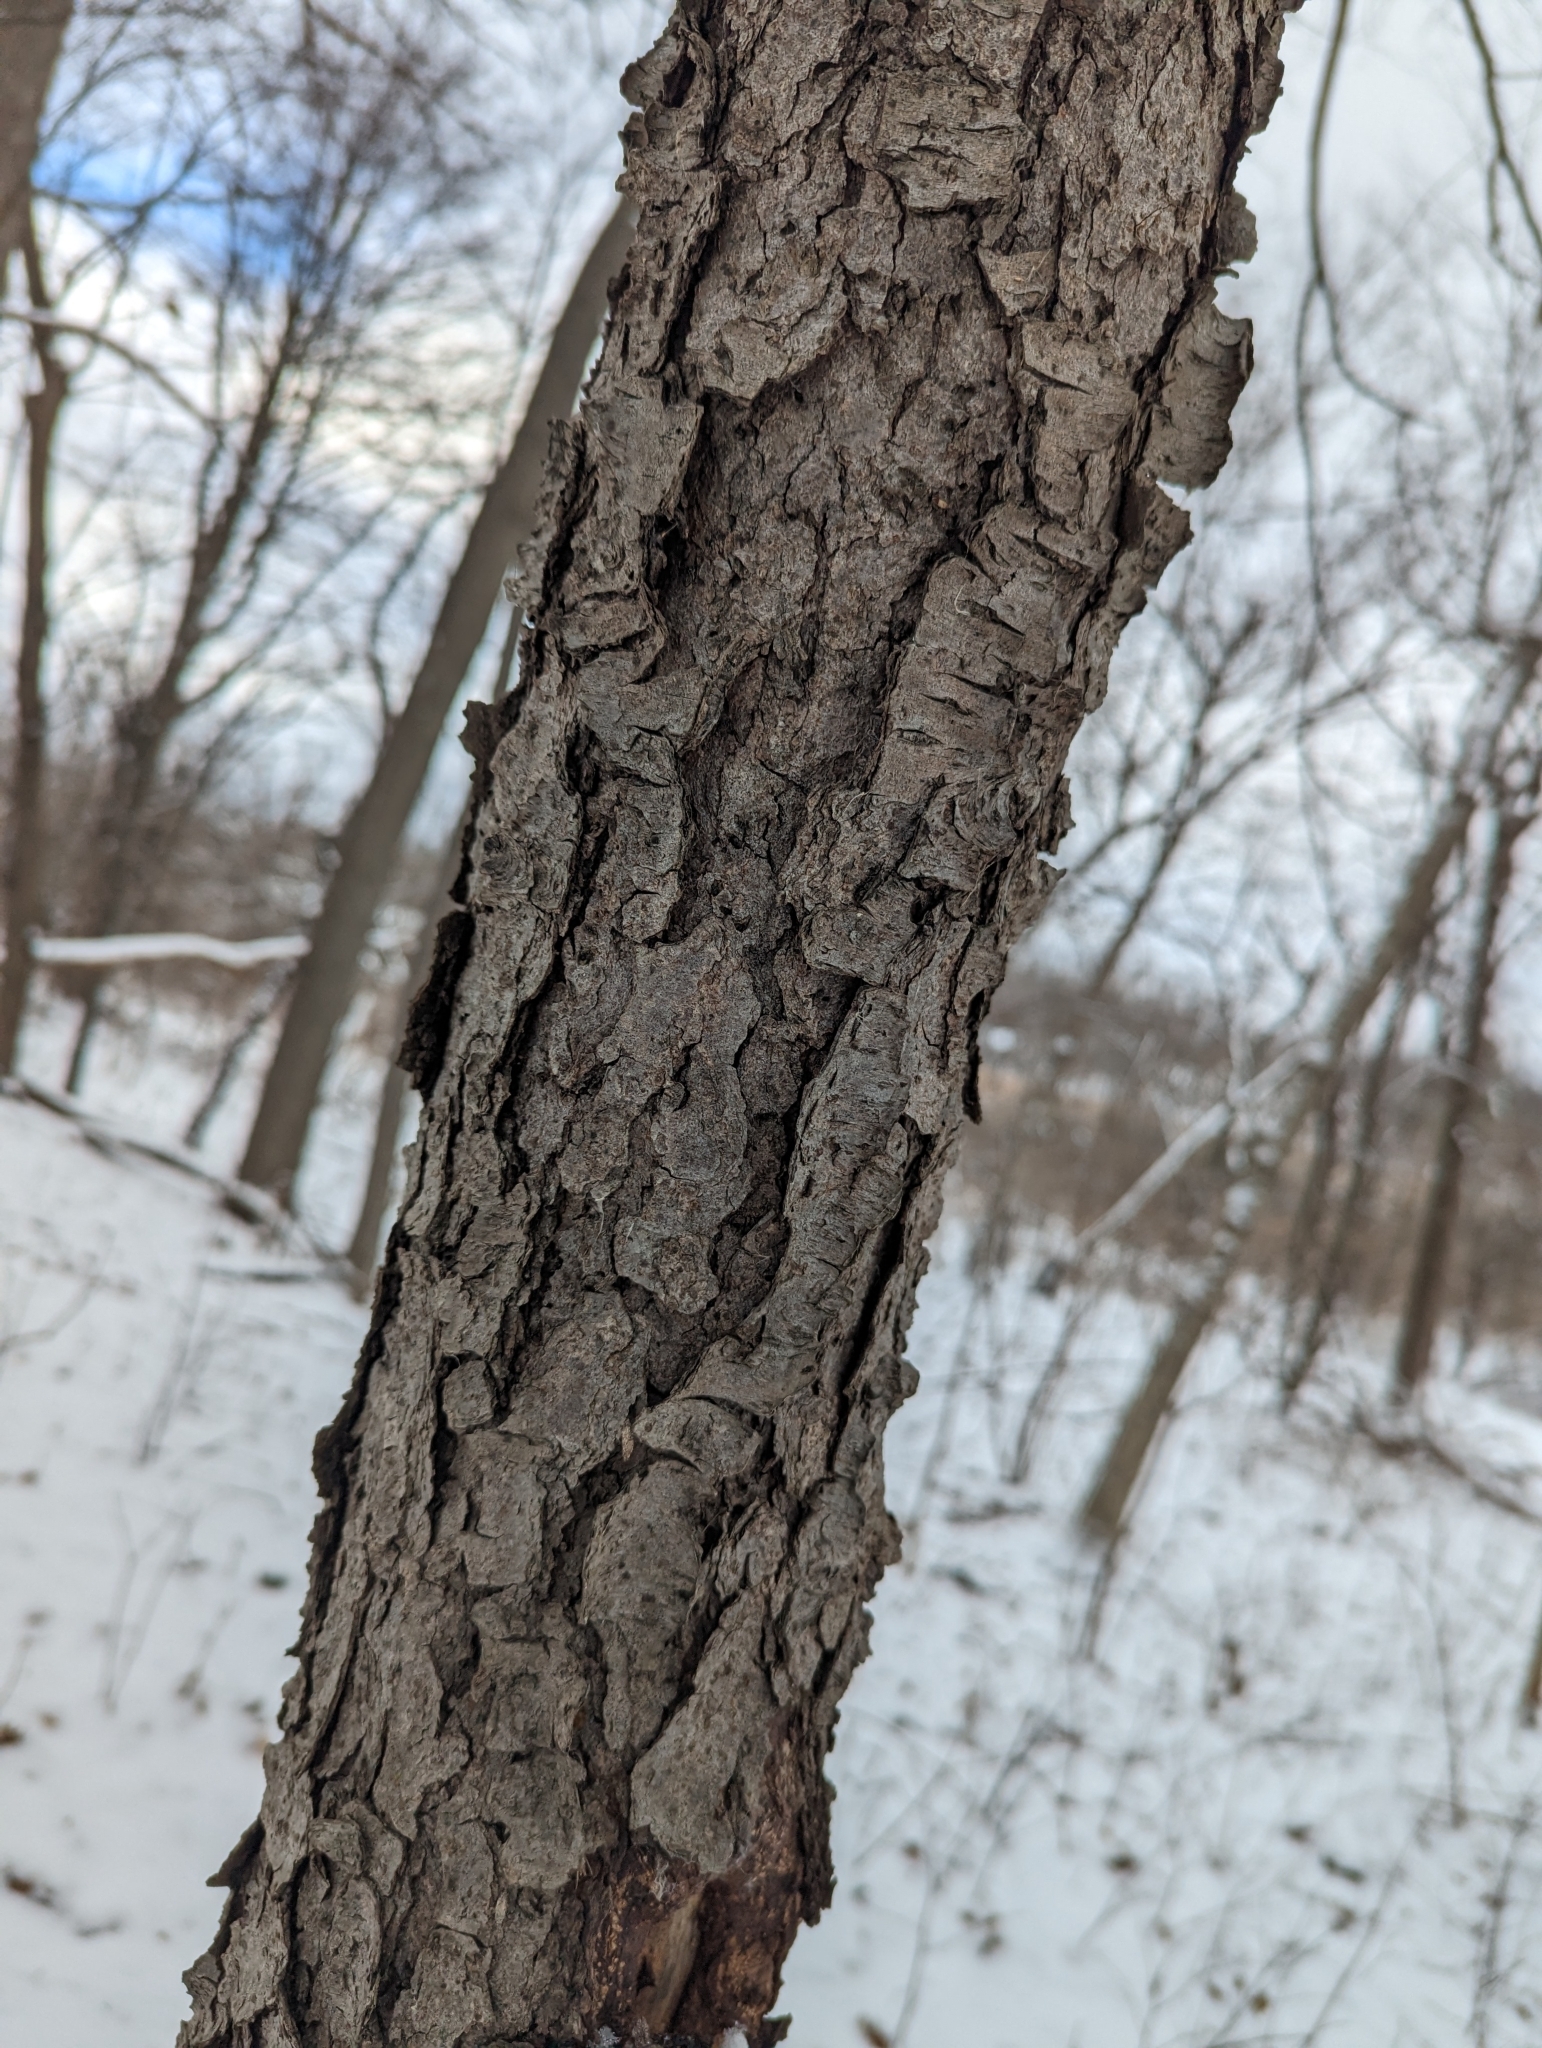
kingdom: Plantae
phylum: Tracheophyta
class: Magnoliopsida
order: Rosales
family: Rosaceae
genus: Prunus
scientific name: Prunus serotina
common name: Black cherry
